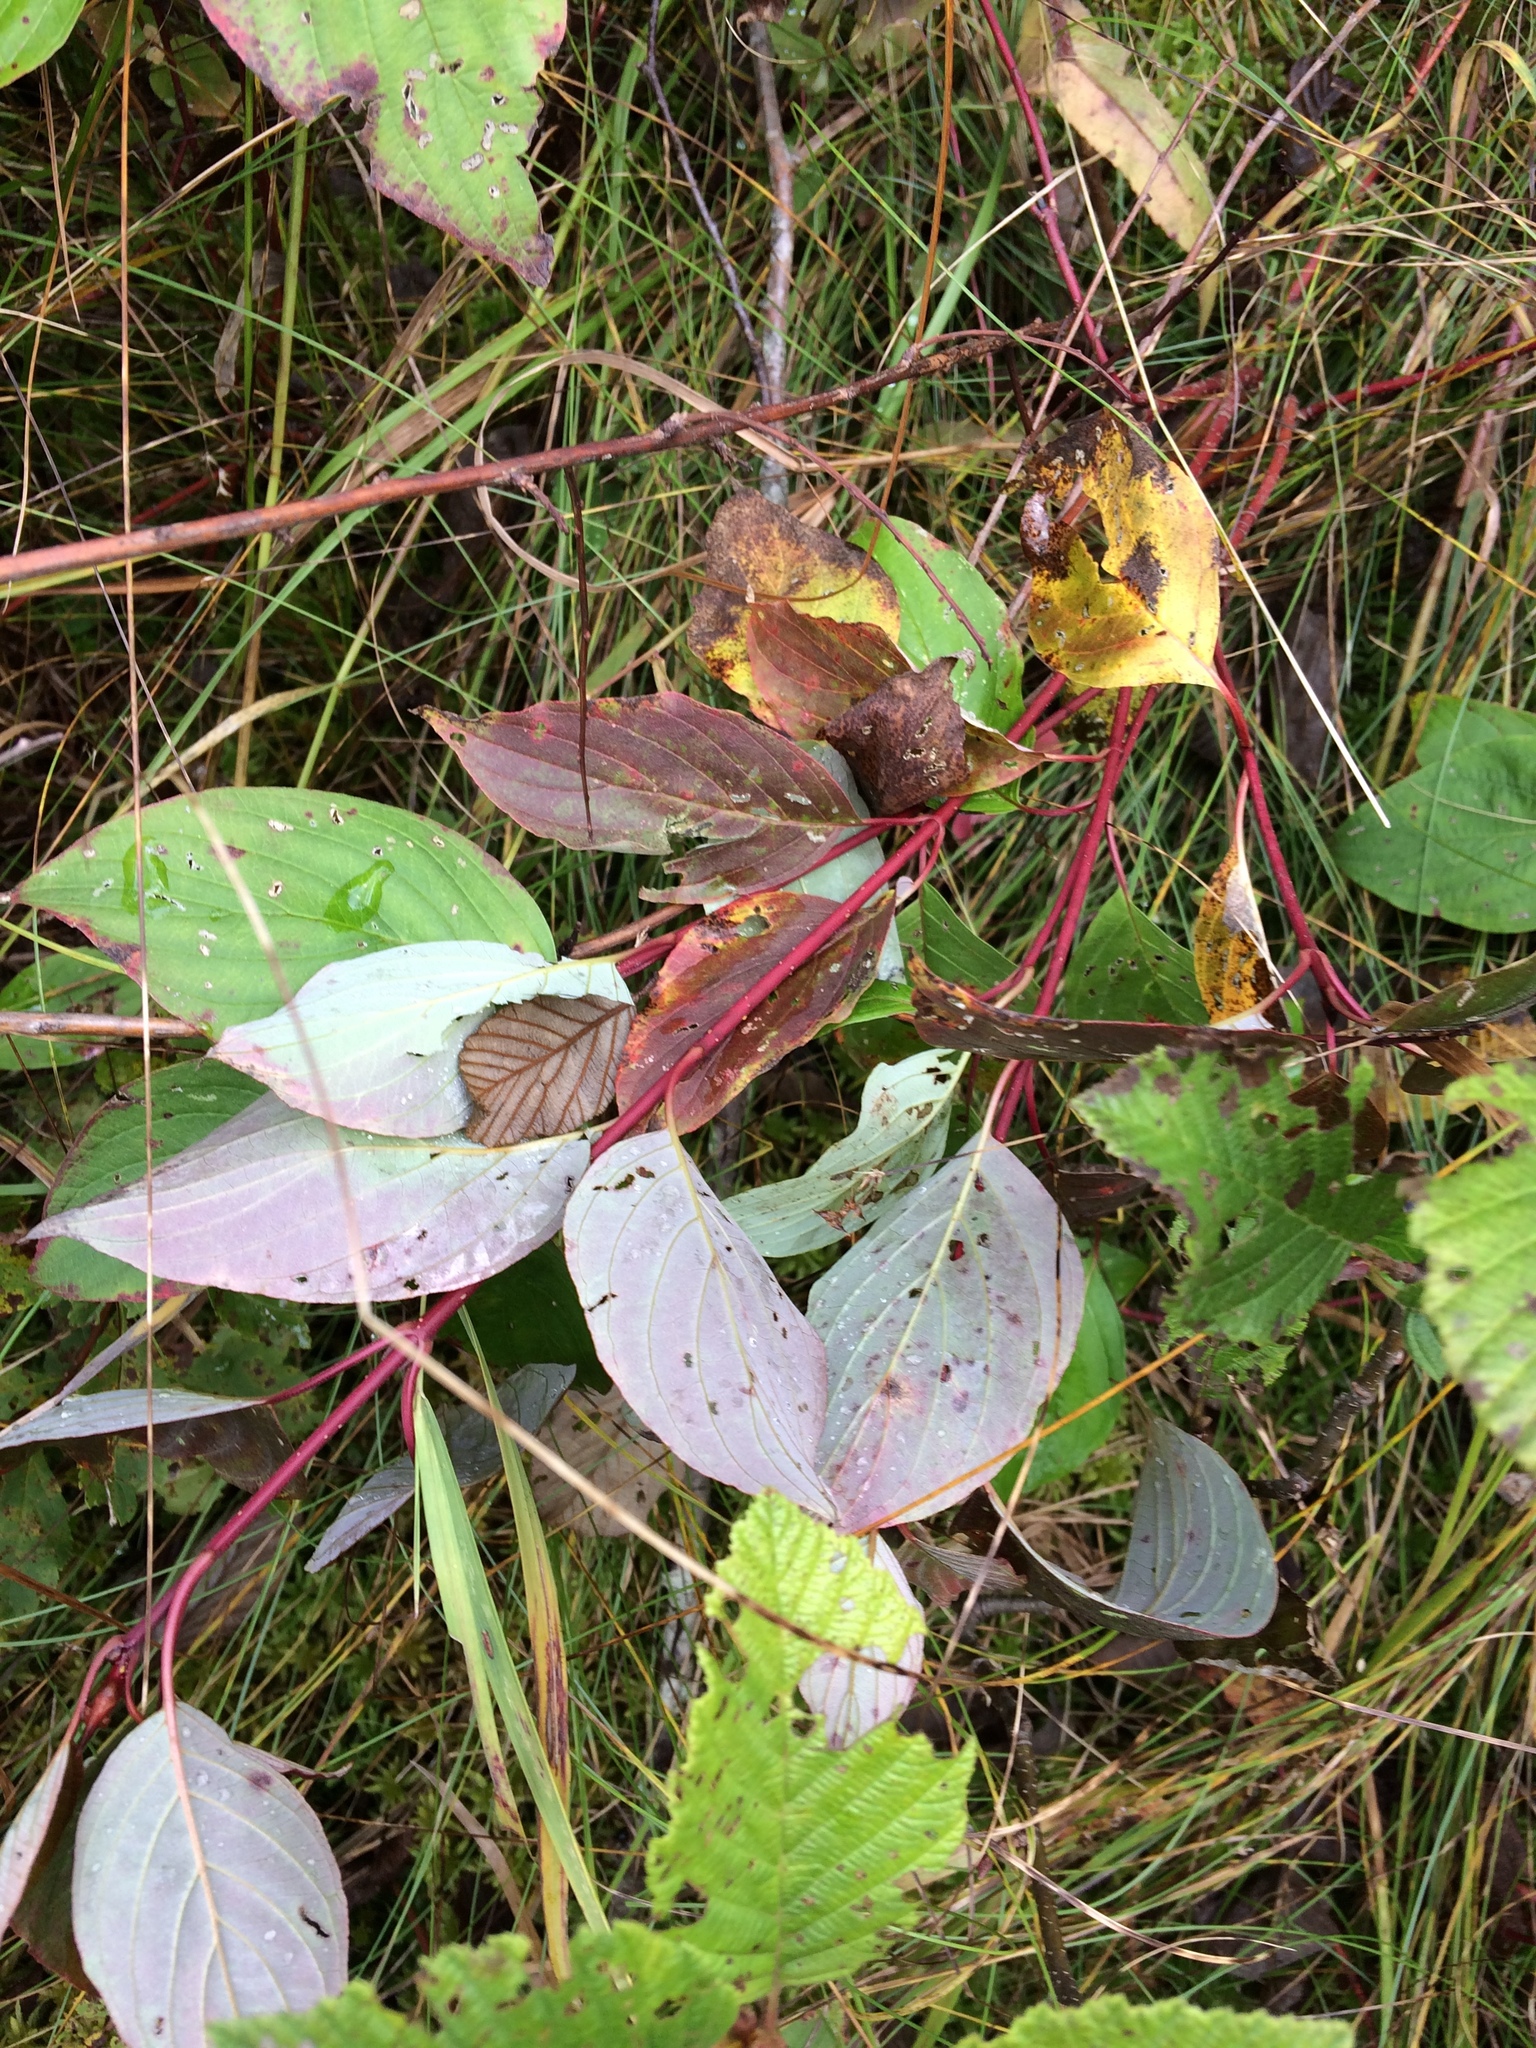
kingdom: Plantae
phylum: Tracheophyta
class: Magnoliopsida
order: Cornales
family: Cornaceae
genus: Cornus
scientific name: Cornus sericea
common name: Red-osier dogwood
